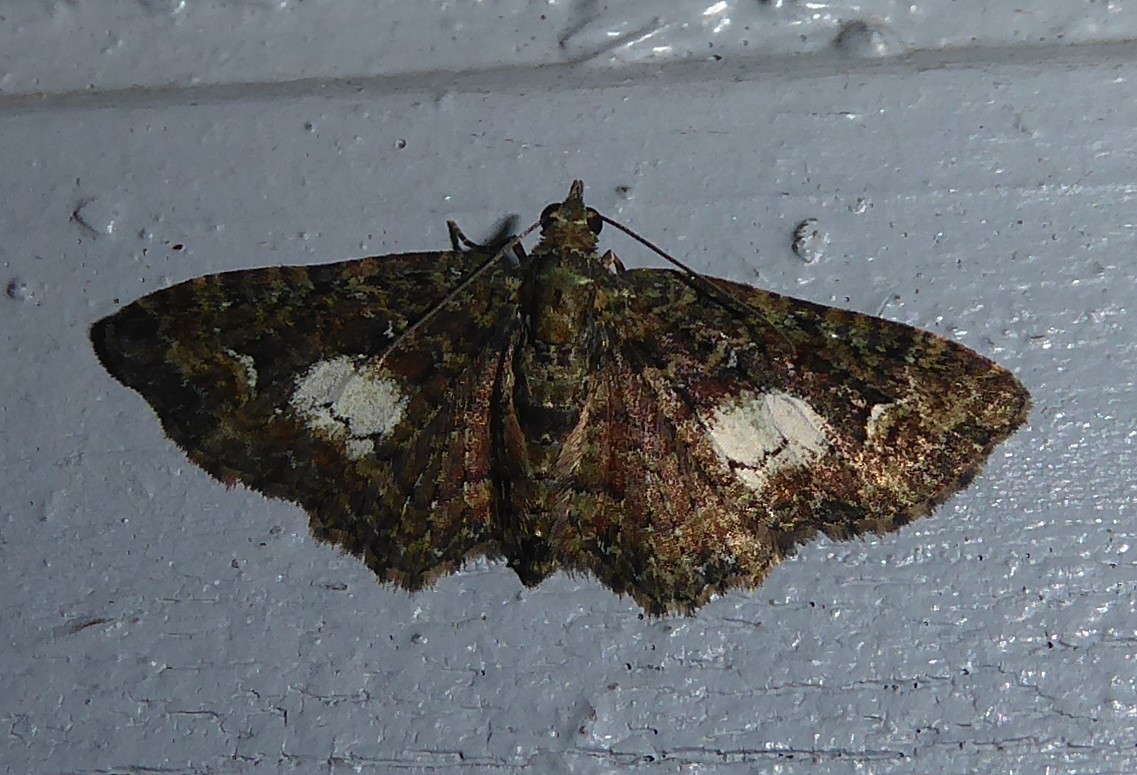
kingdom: Animalia
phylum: Arthropoda
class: Insecta
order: Lepidoptera
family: Geometridae
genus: Pasiphilodes
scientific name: Pasiphilodes testulata
